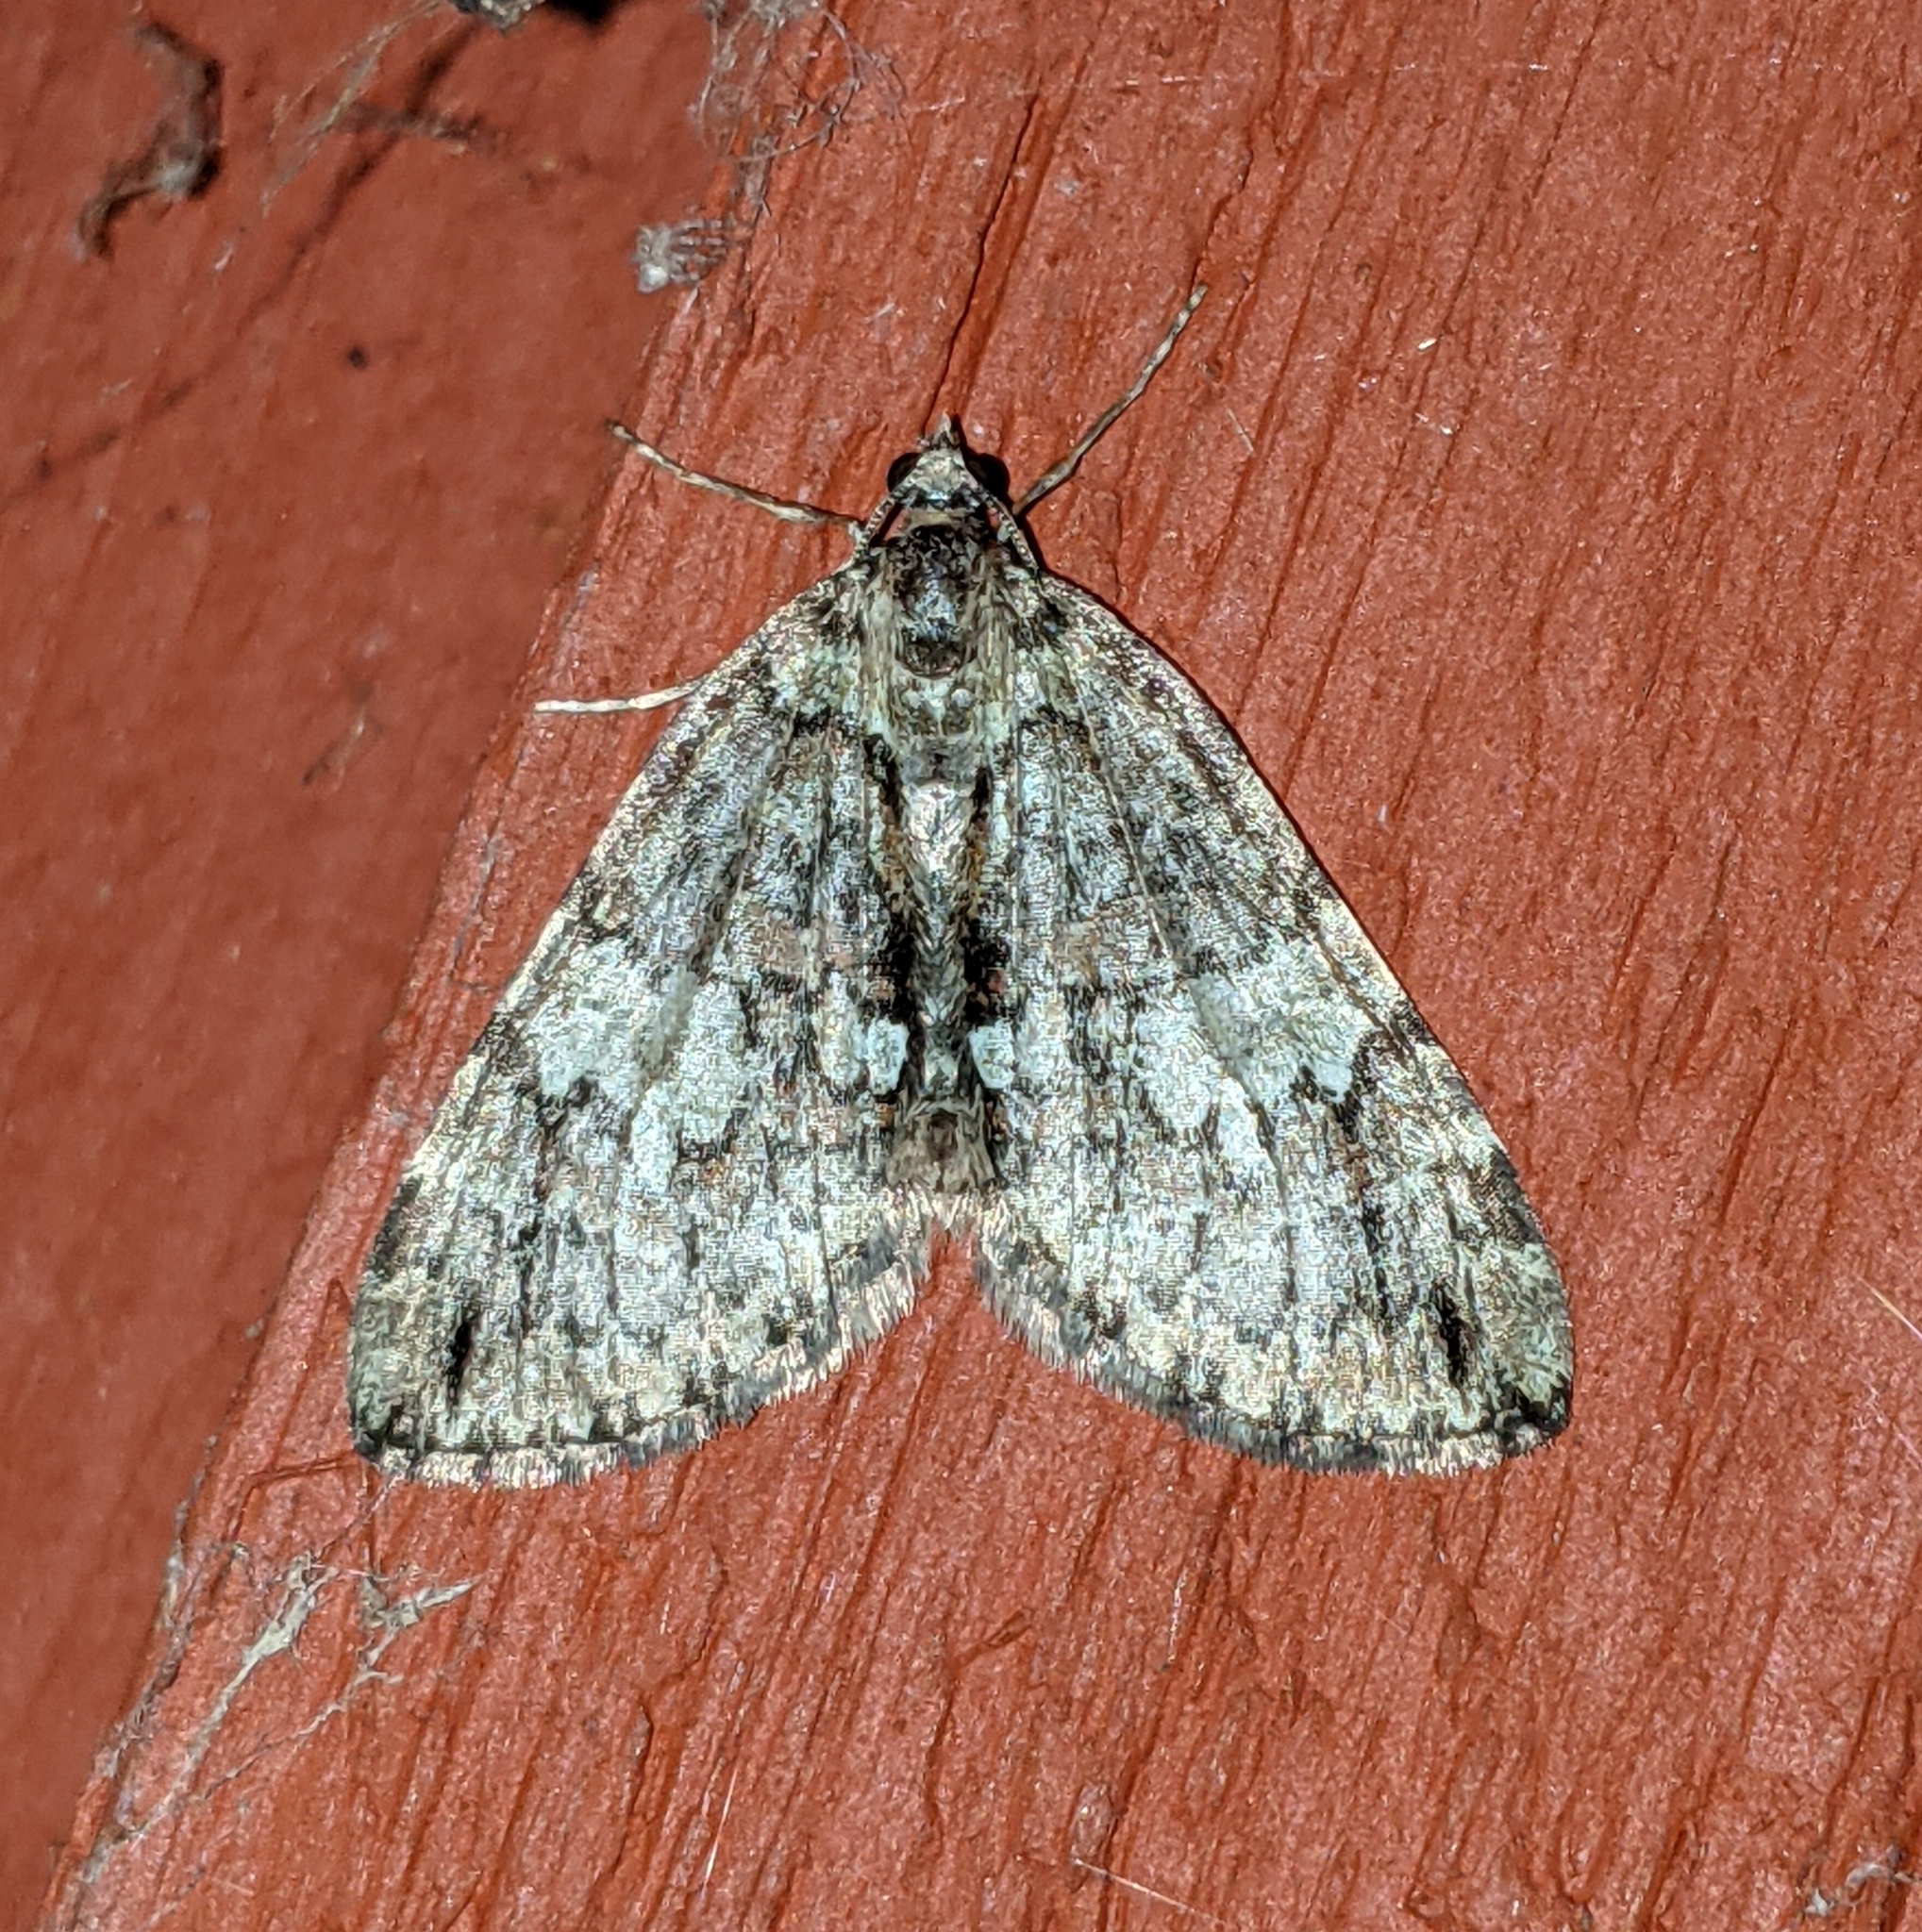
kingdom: Animalia
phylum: Arthropoda
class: Insecta
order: Lepidoptera
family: Geometridae
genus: Hydriomena
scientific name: Hydriomena irata
